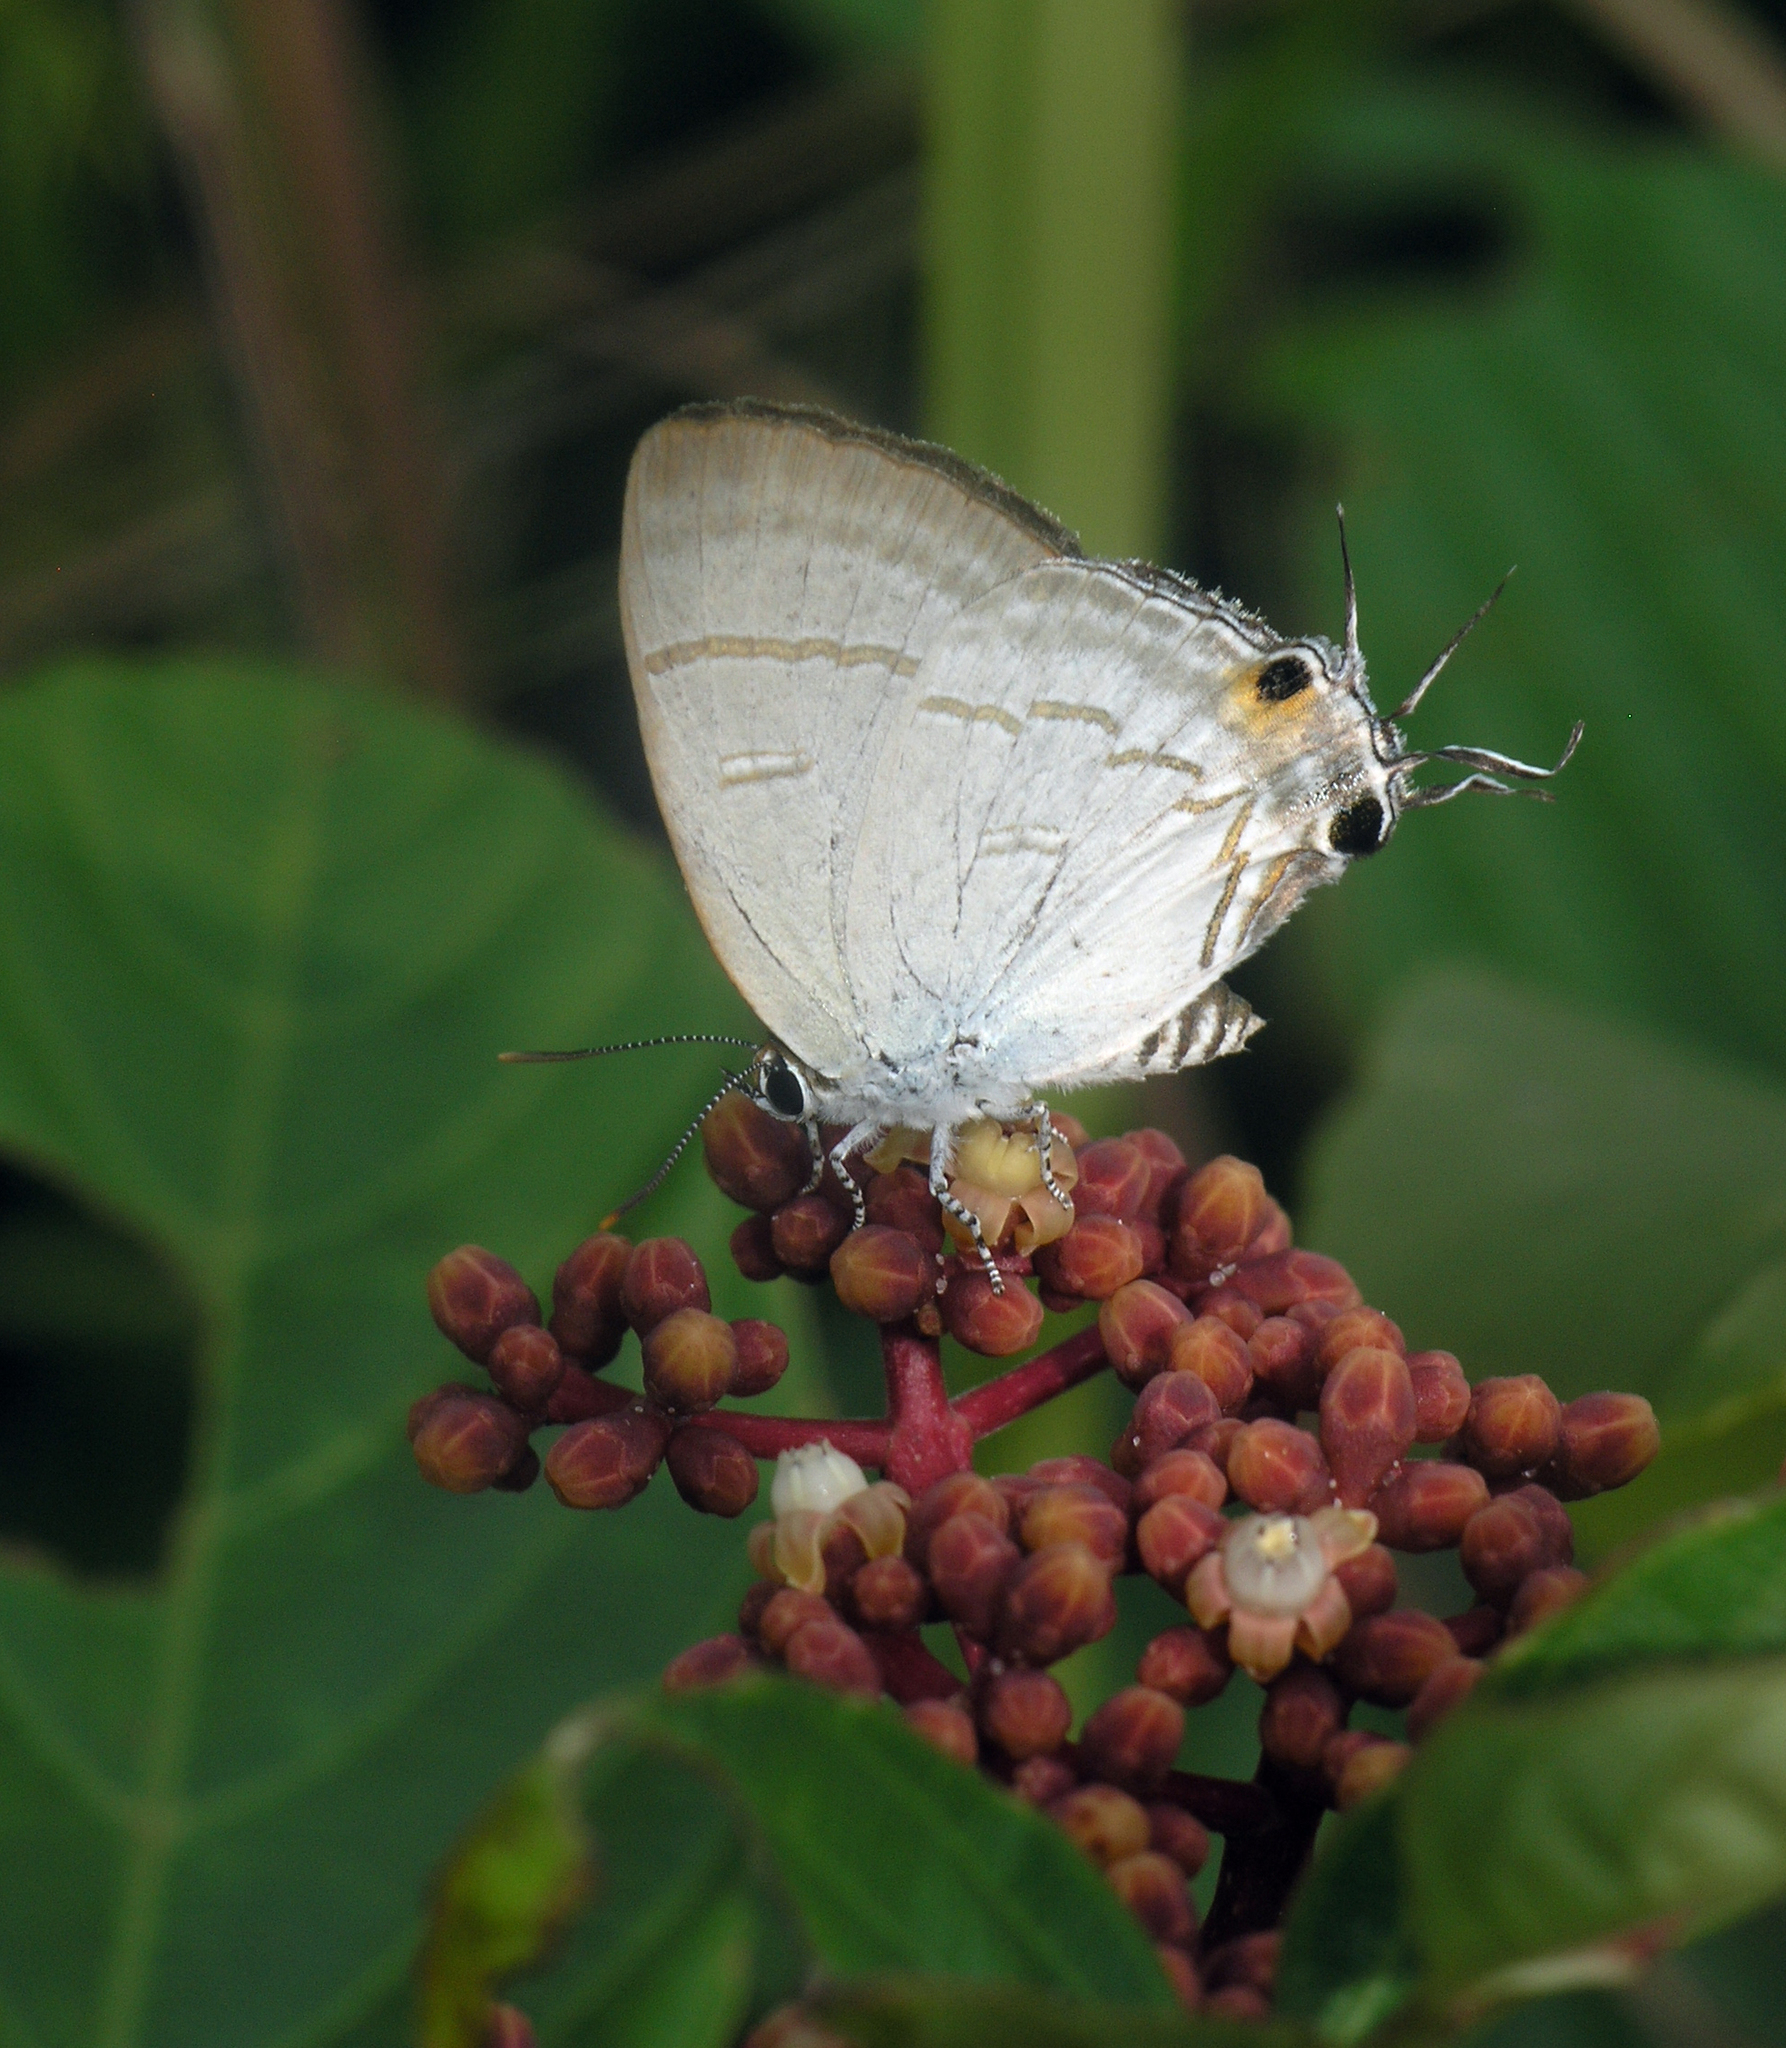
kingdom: Animalia
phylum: Arthropoda
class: Insecta
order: Lepidoptera
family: Lycaenidae
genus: Hypolycaena
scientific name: Hypolycaena erylus
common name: Common tit
